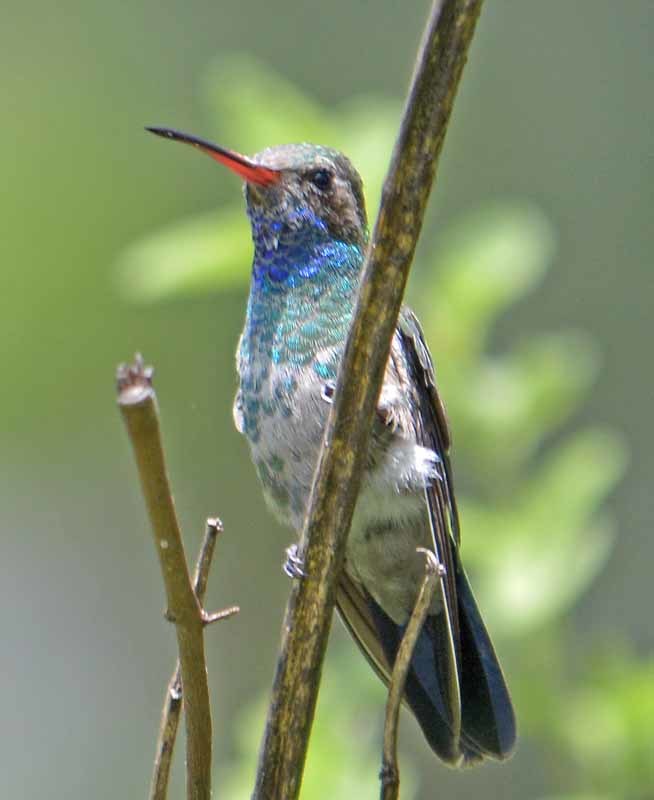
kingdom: Animalia
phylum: Chordata
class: Aves
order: Apodiformes
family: Trochilidae
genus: Cynanthus
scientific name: Cynanthus latirostris
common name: Broad-billed hummingbird
